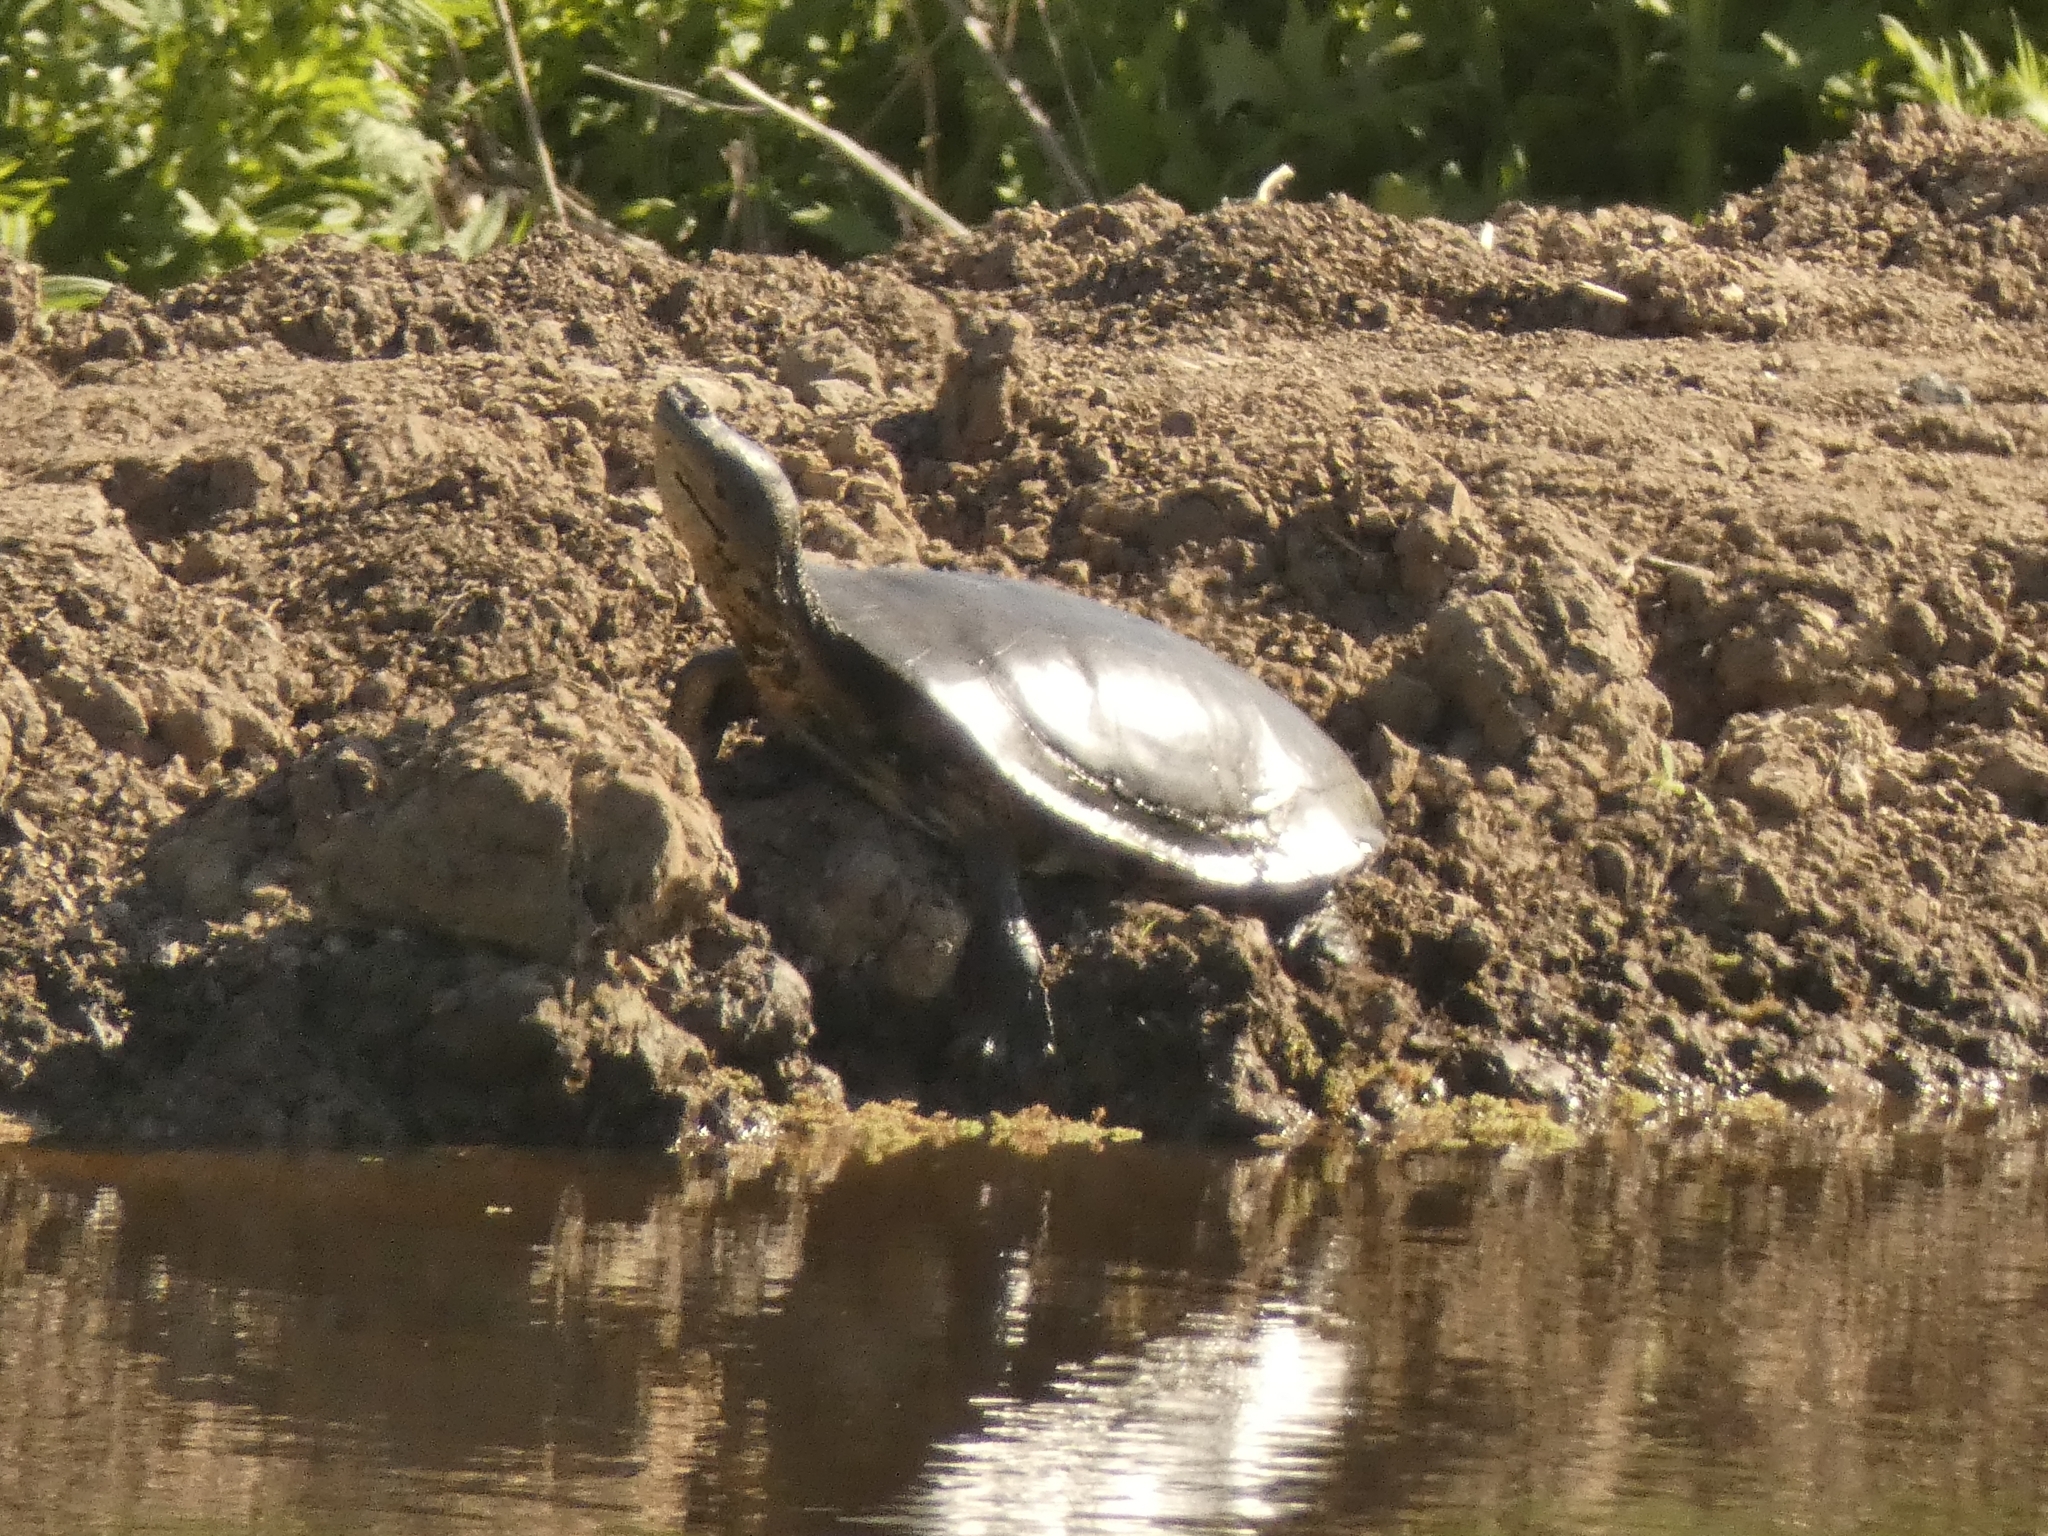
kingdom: Animalia
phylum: Chordata
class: Testudines
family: Chelidae
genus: Phrynops
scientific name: Phrynops hilarii
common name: Side-necked turtle of saint hillaire
